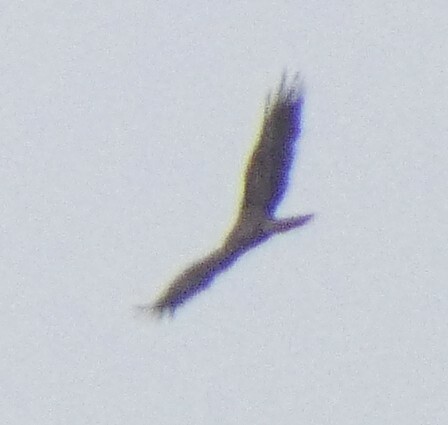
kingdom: Animalia
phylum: Chordata
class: Aves
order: Accipitriformes
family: Accipitridae
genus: Circus
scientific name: Circus aeruginosus
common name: Western marsh harrier
